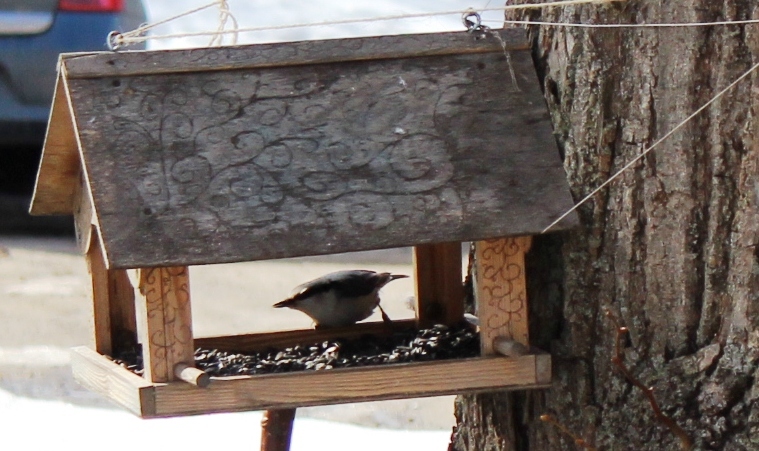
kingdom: Animalia
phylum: Chordata
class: Aves
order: Passeriformes
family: Sittidae
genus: Sitta
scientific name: Sitta europaea
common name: Eurasian nuthatch
